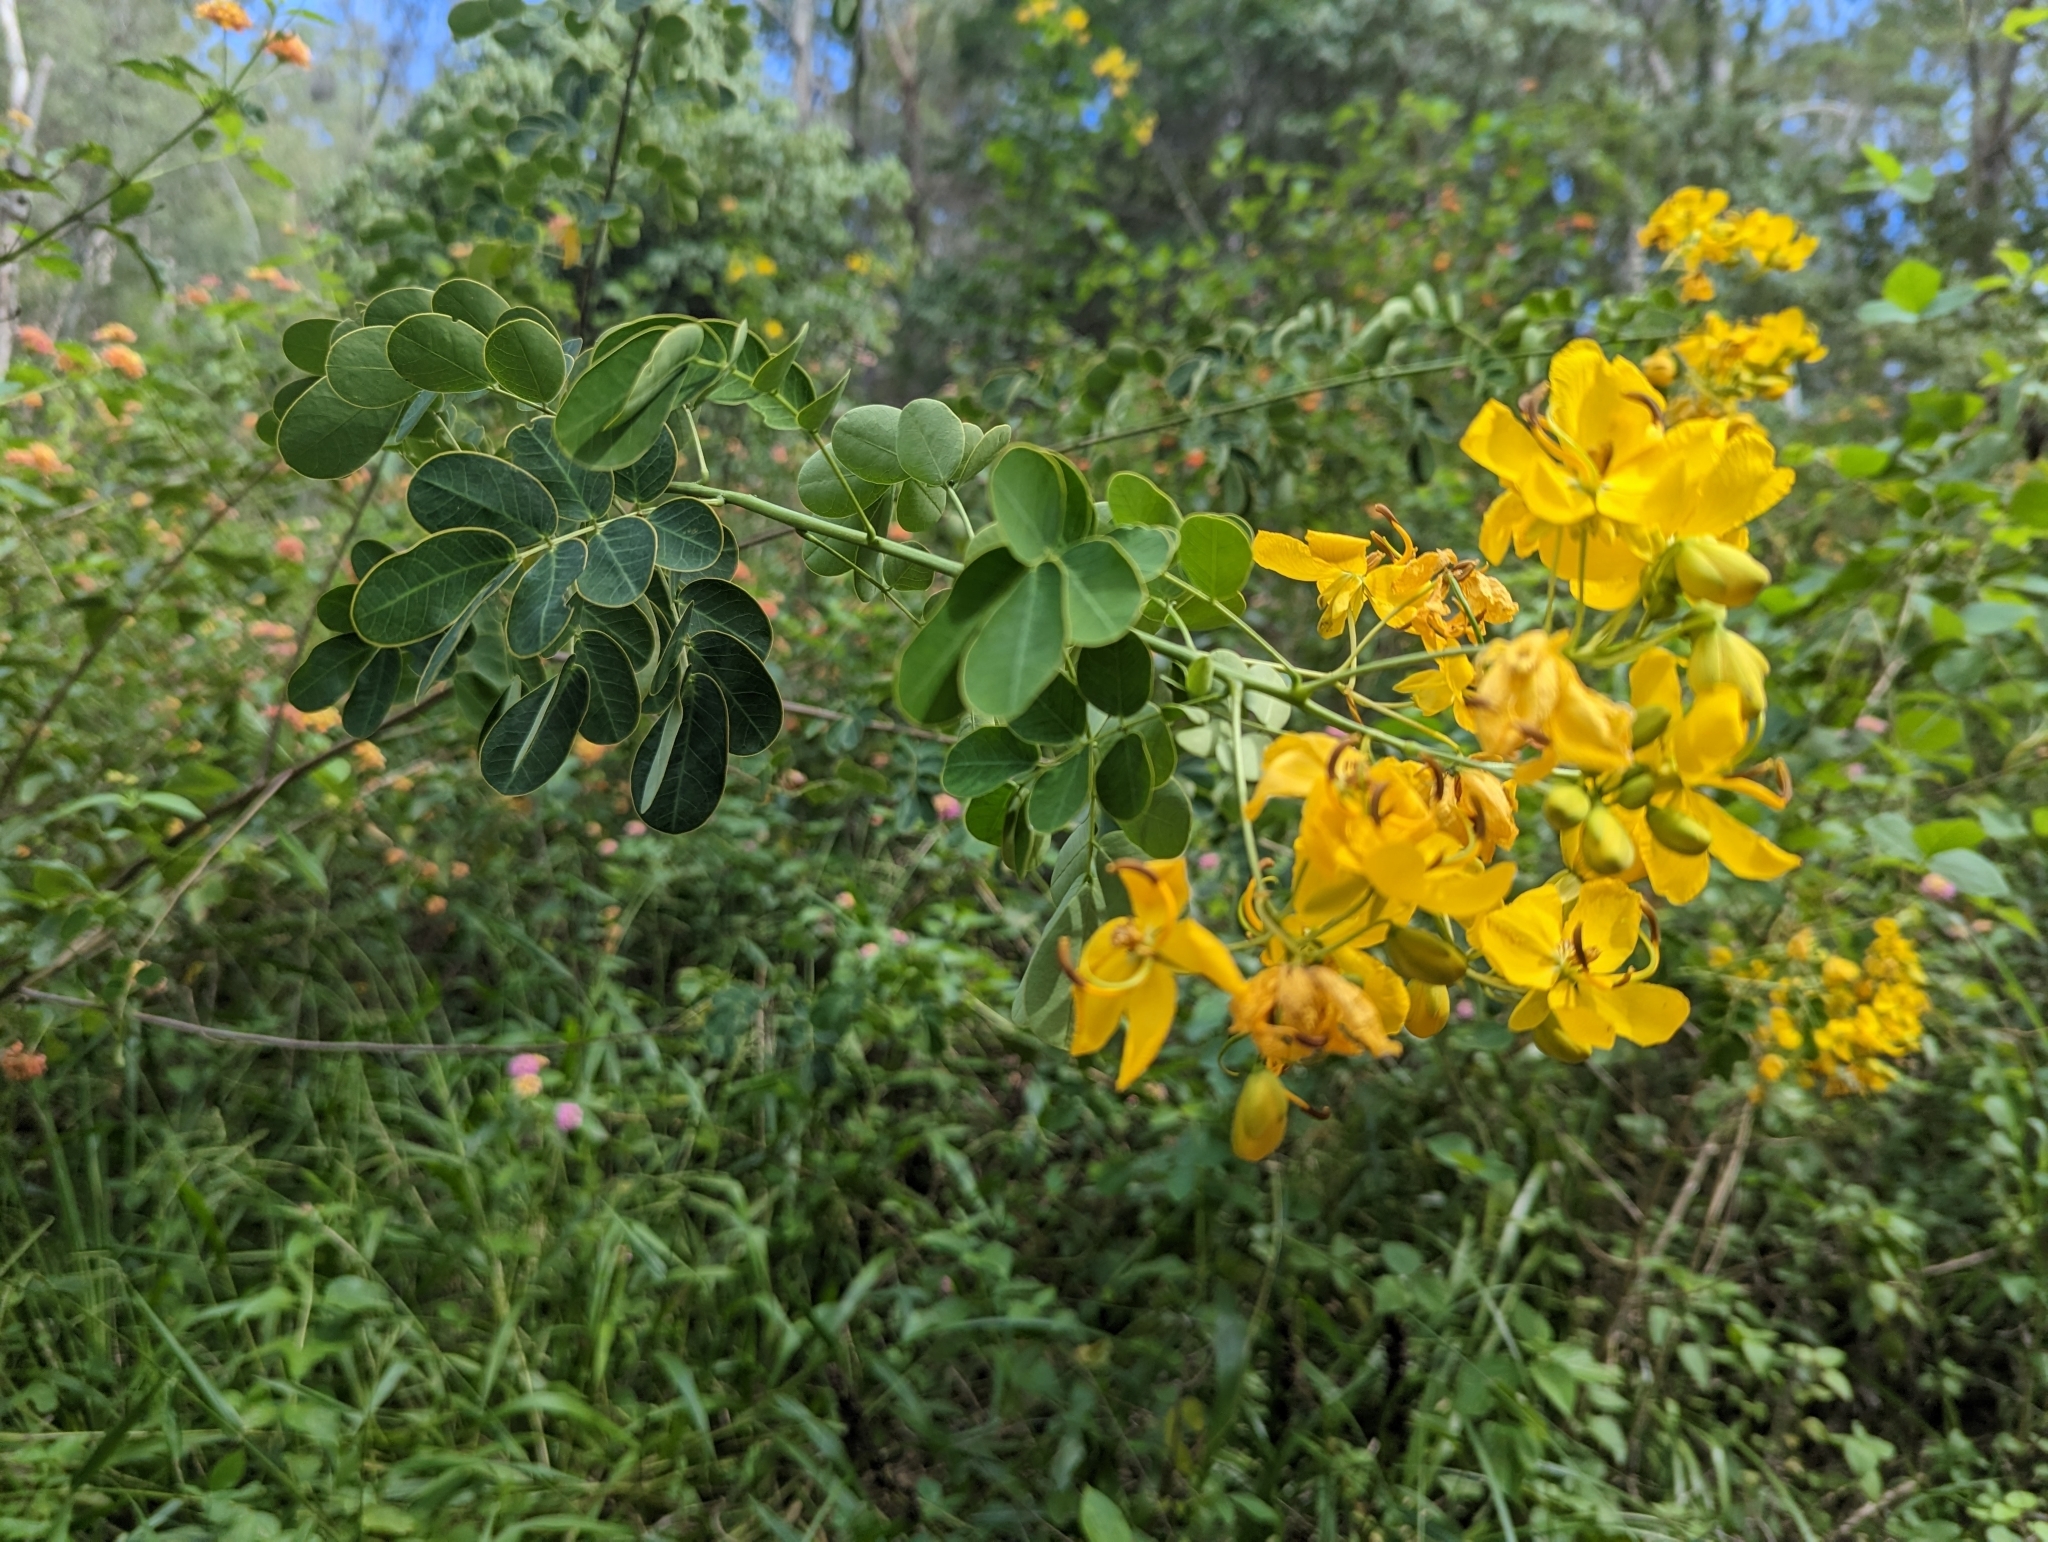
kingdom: Plantae
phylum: Tracheophyta
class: Magnoliopsida
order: Fabales
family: Fabaceae
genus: Senna
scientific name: Senna pendula
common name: Easter cassia
